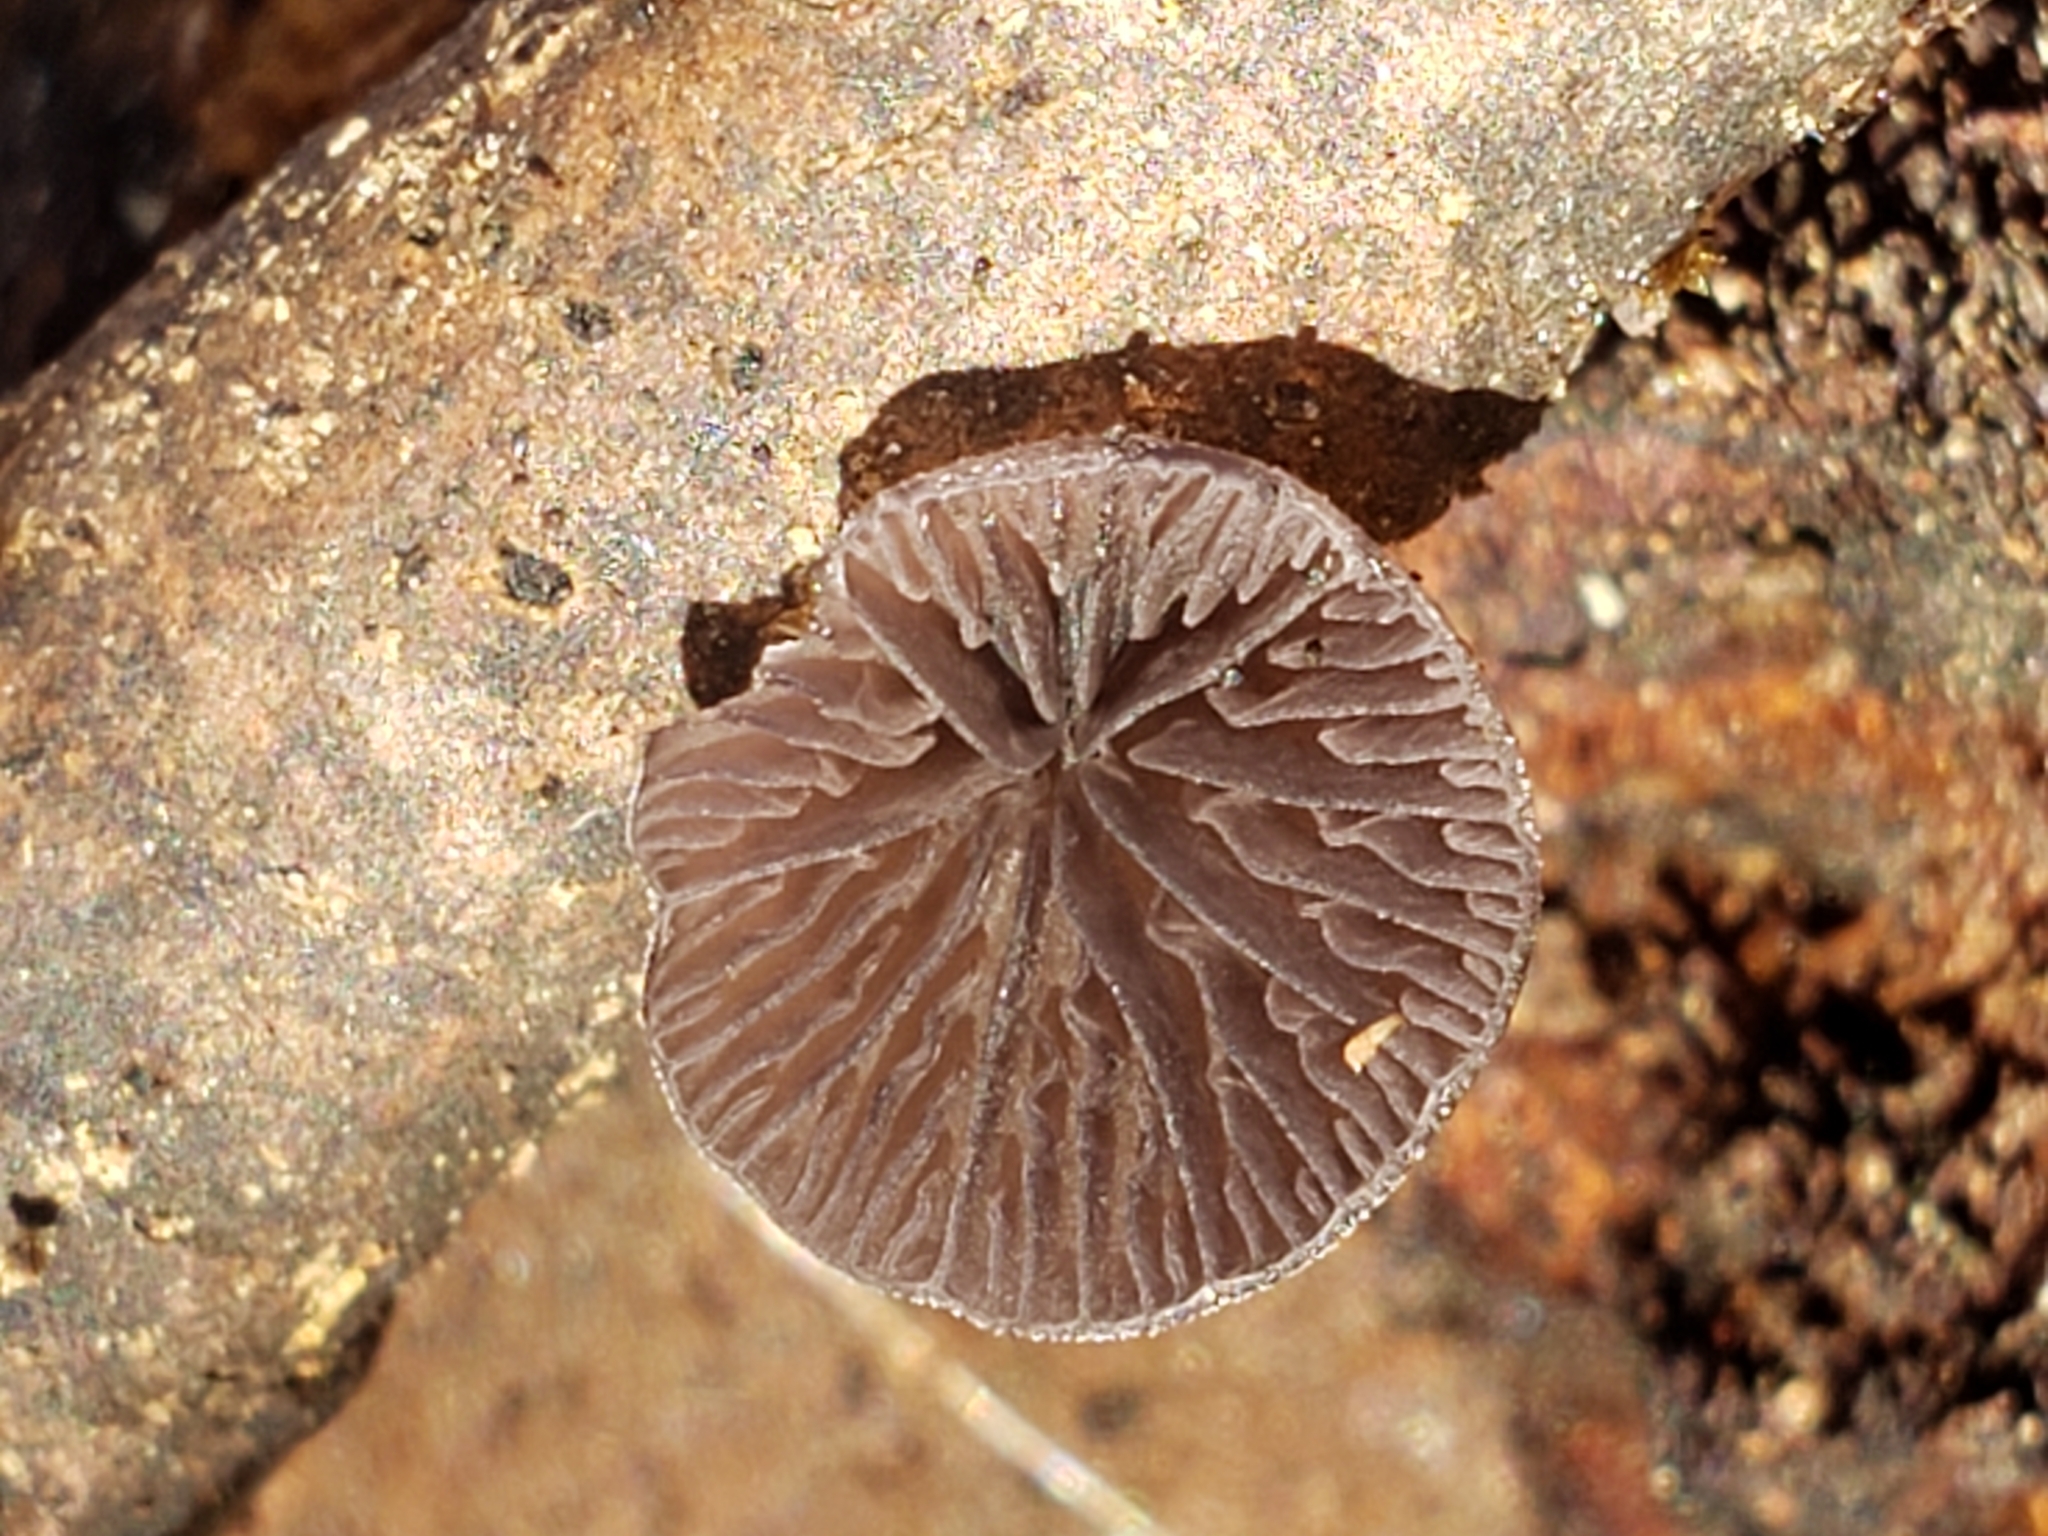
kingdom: Fungi
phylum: Basidiomycota
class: Agaricomycetes
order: Agaricales
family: Pleurotaceae
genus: Resupinatus
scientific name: Resupinatus applicatus
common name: Smoked oysterling
